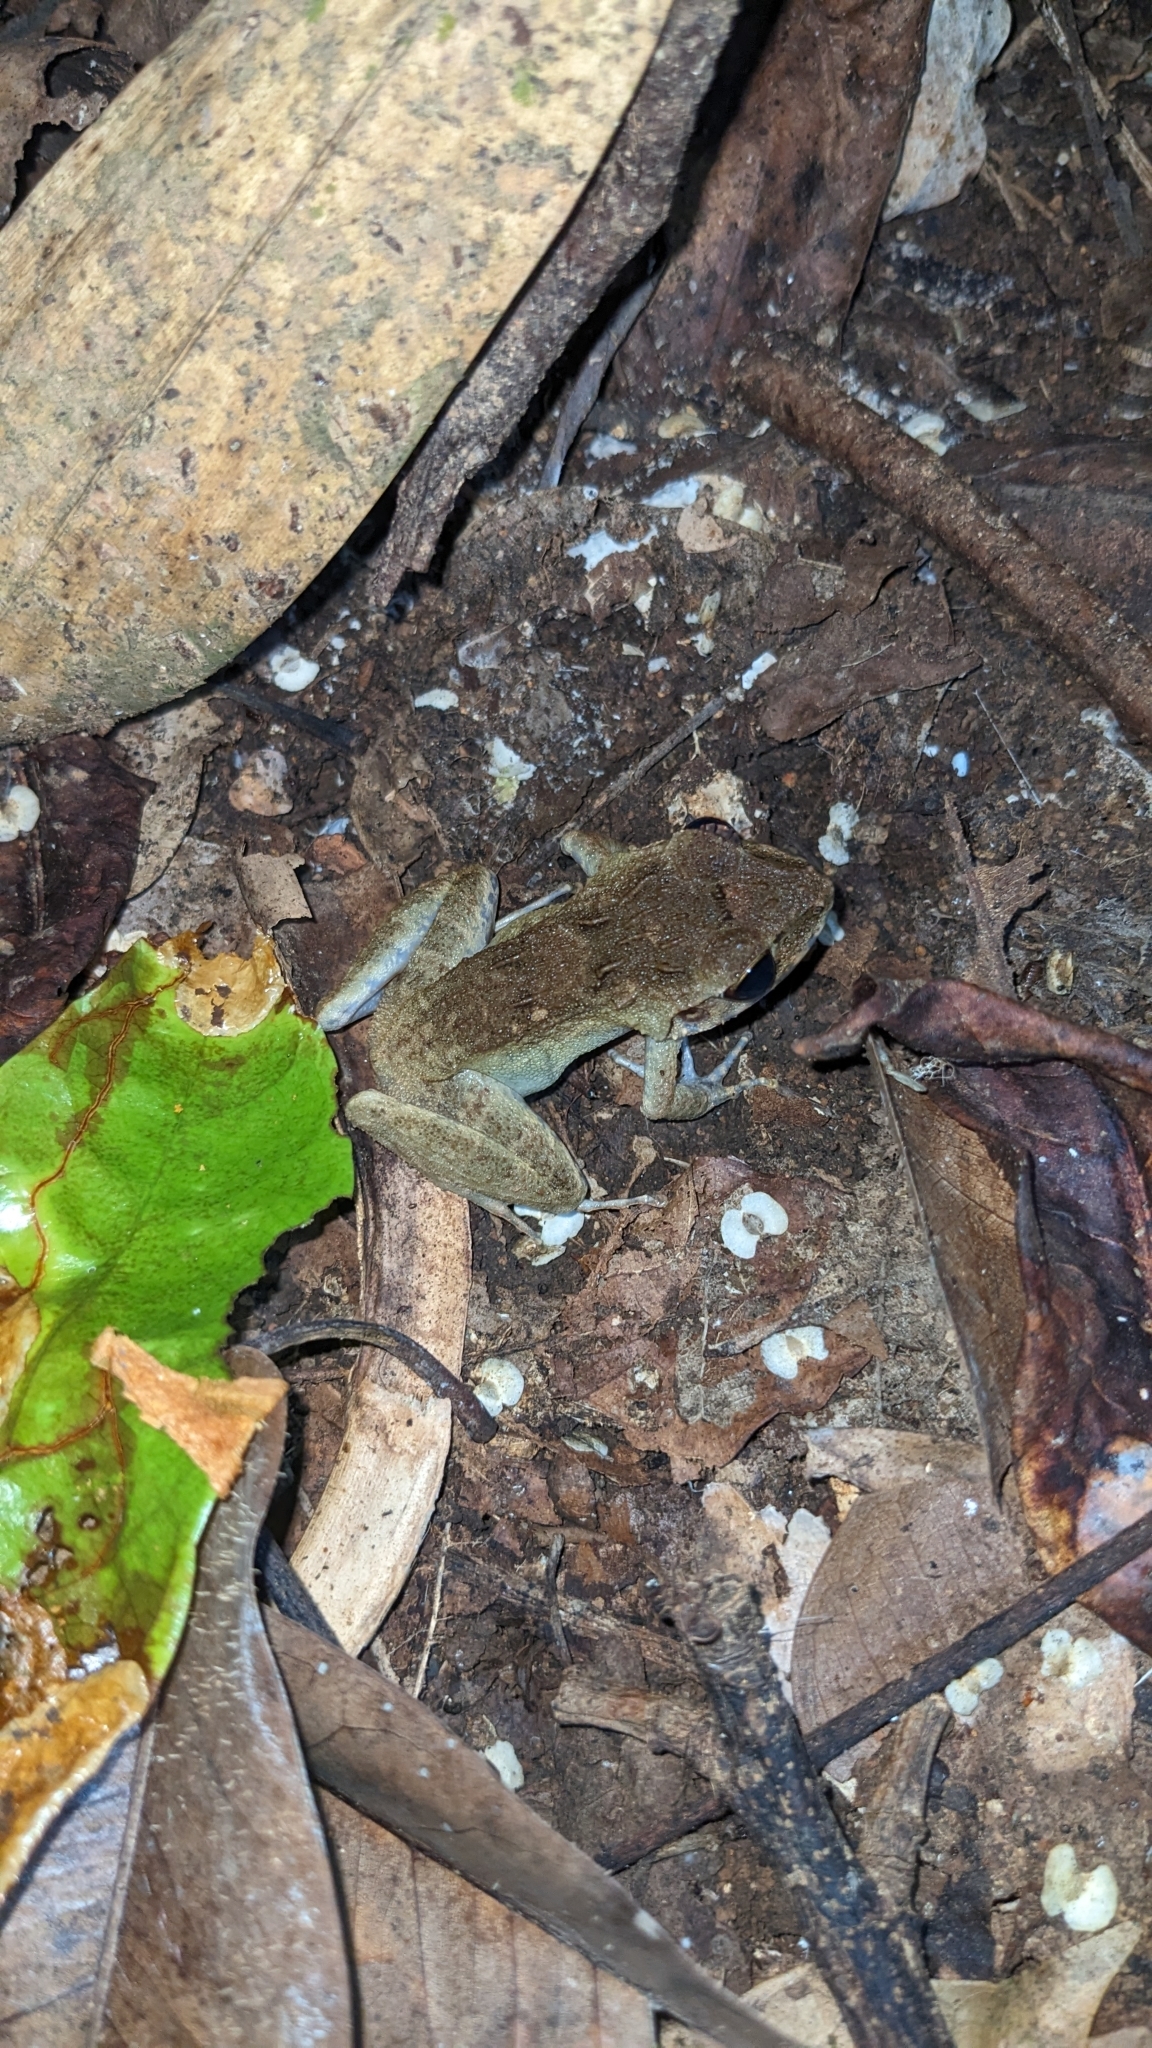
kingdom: Animalia
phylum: Chordata
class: Amphibia
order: Anura
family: Ceratobatrachidae
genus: Cornufer
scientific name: Cornufer papuensis
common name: Papua wrinkled ground frog
